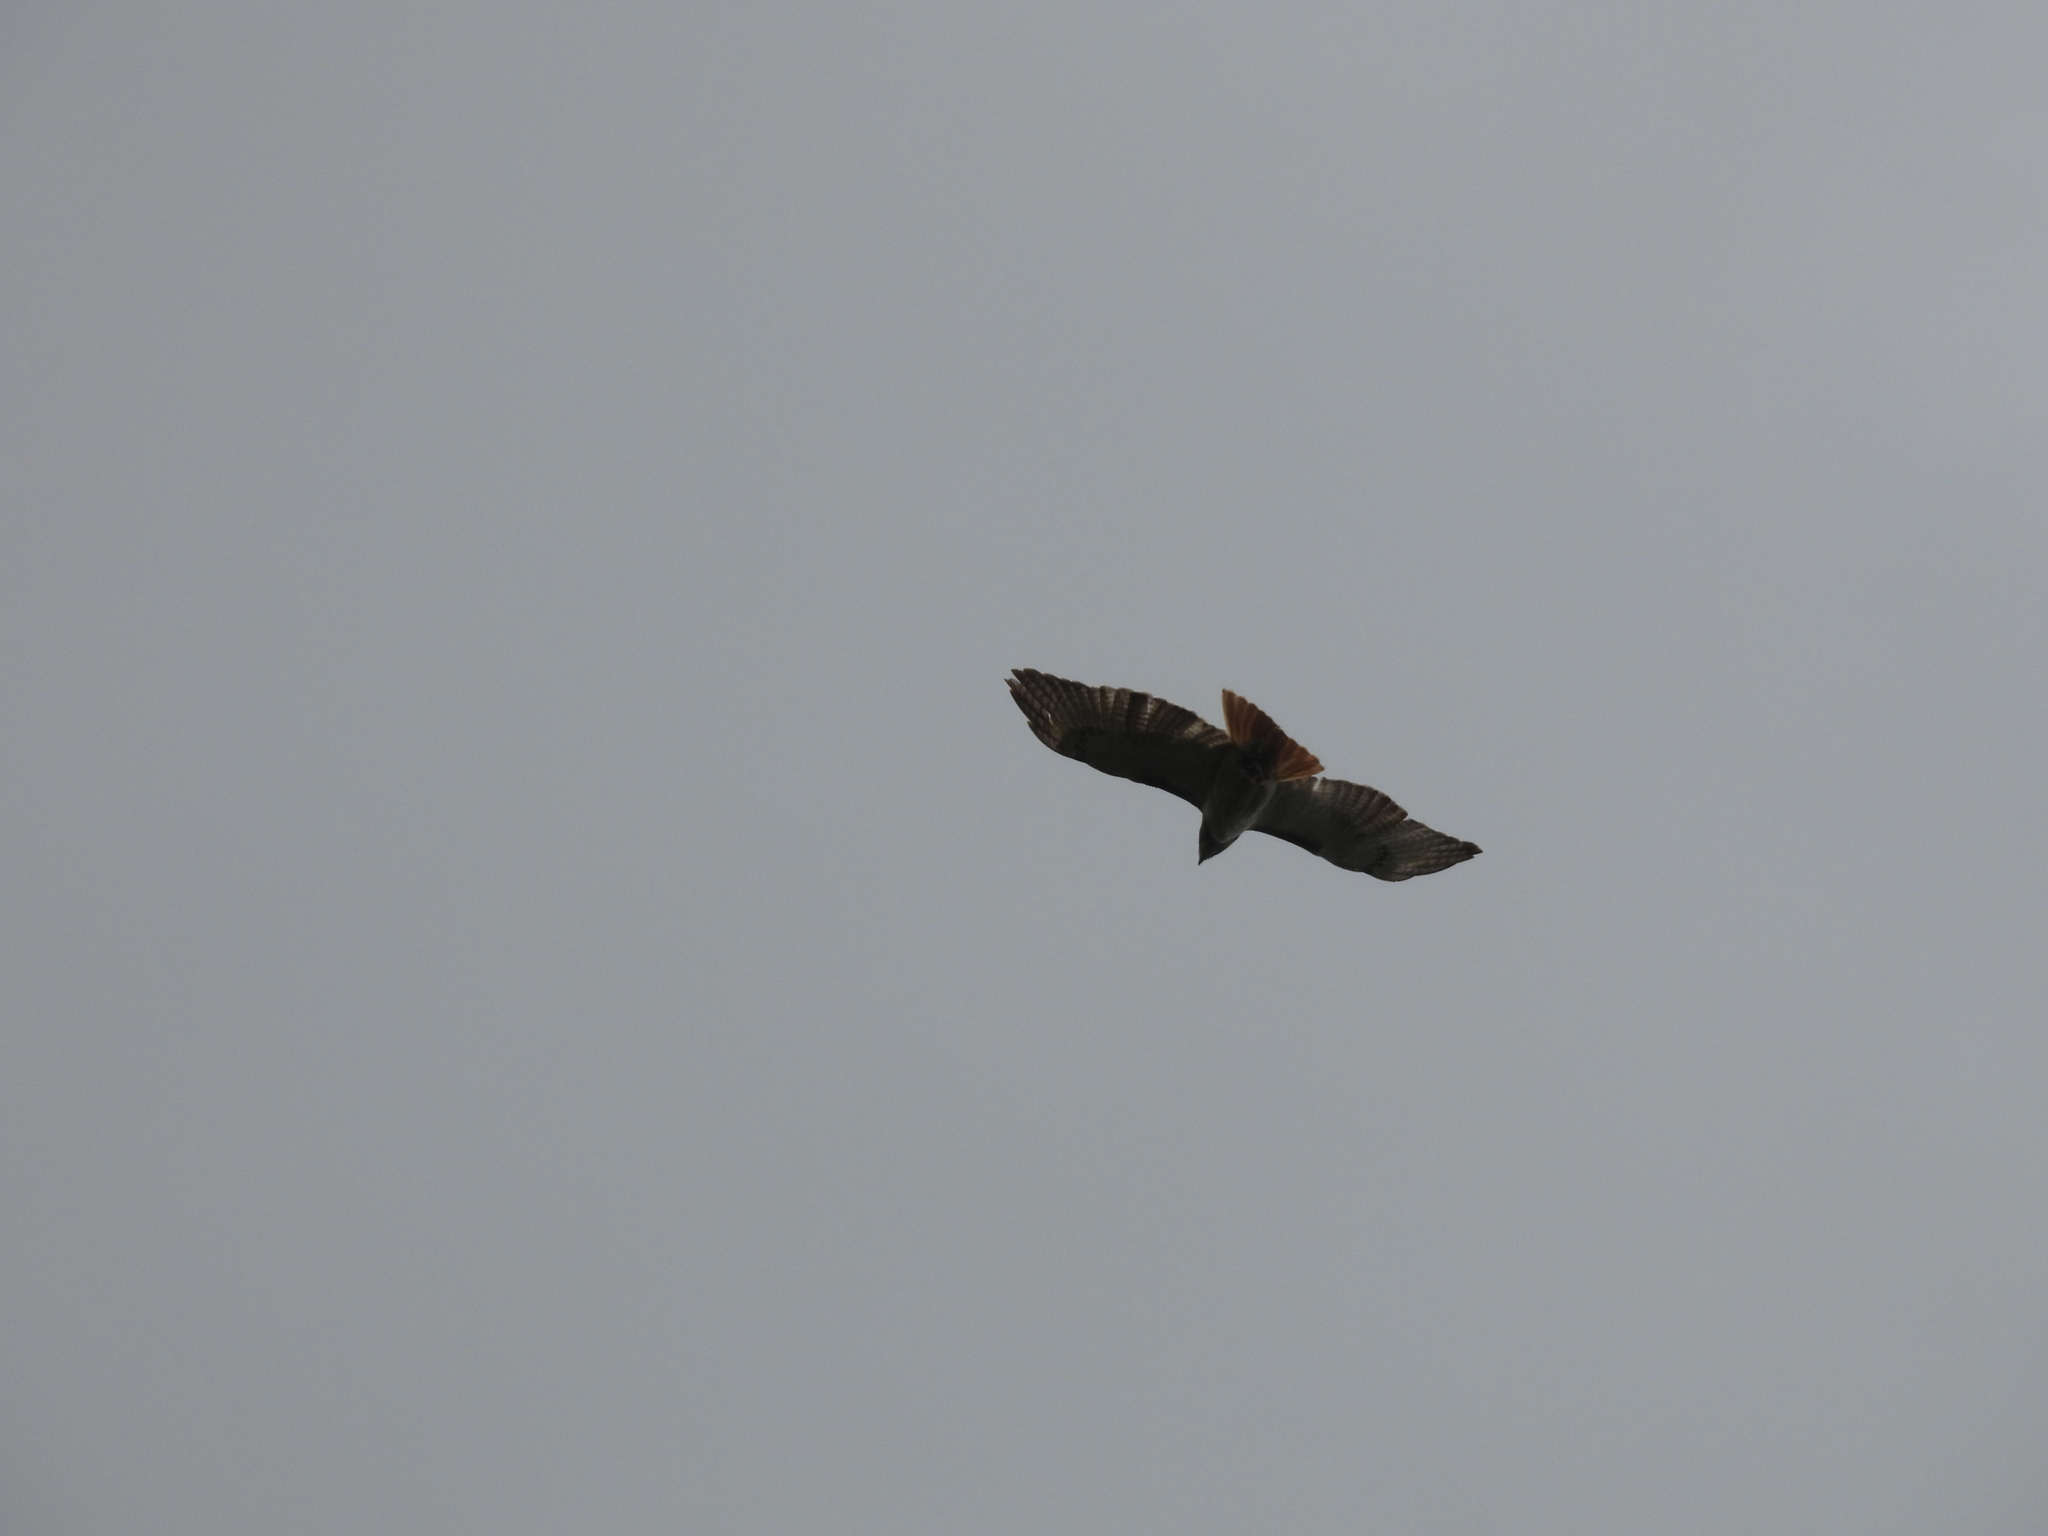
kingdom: Animalia
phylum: Chordata
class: Aves
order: Accipitriformes
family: Accipitridae
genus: Buteo
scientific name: Buteo jamaicensis
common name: Red-tailed hawk
